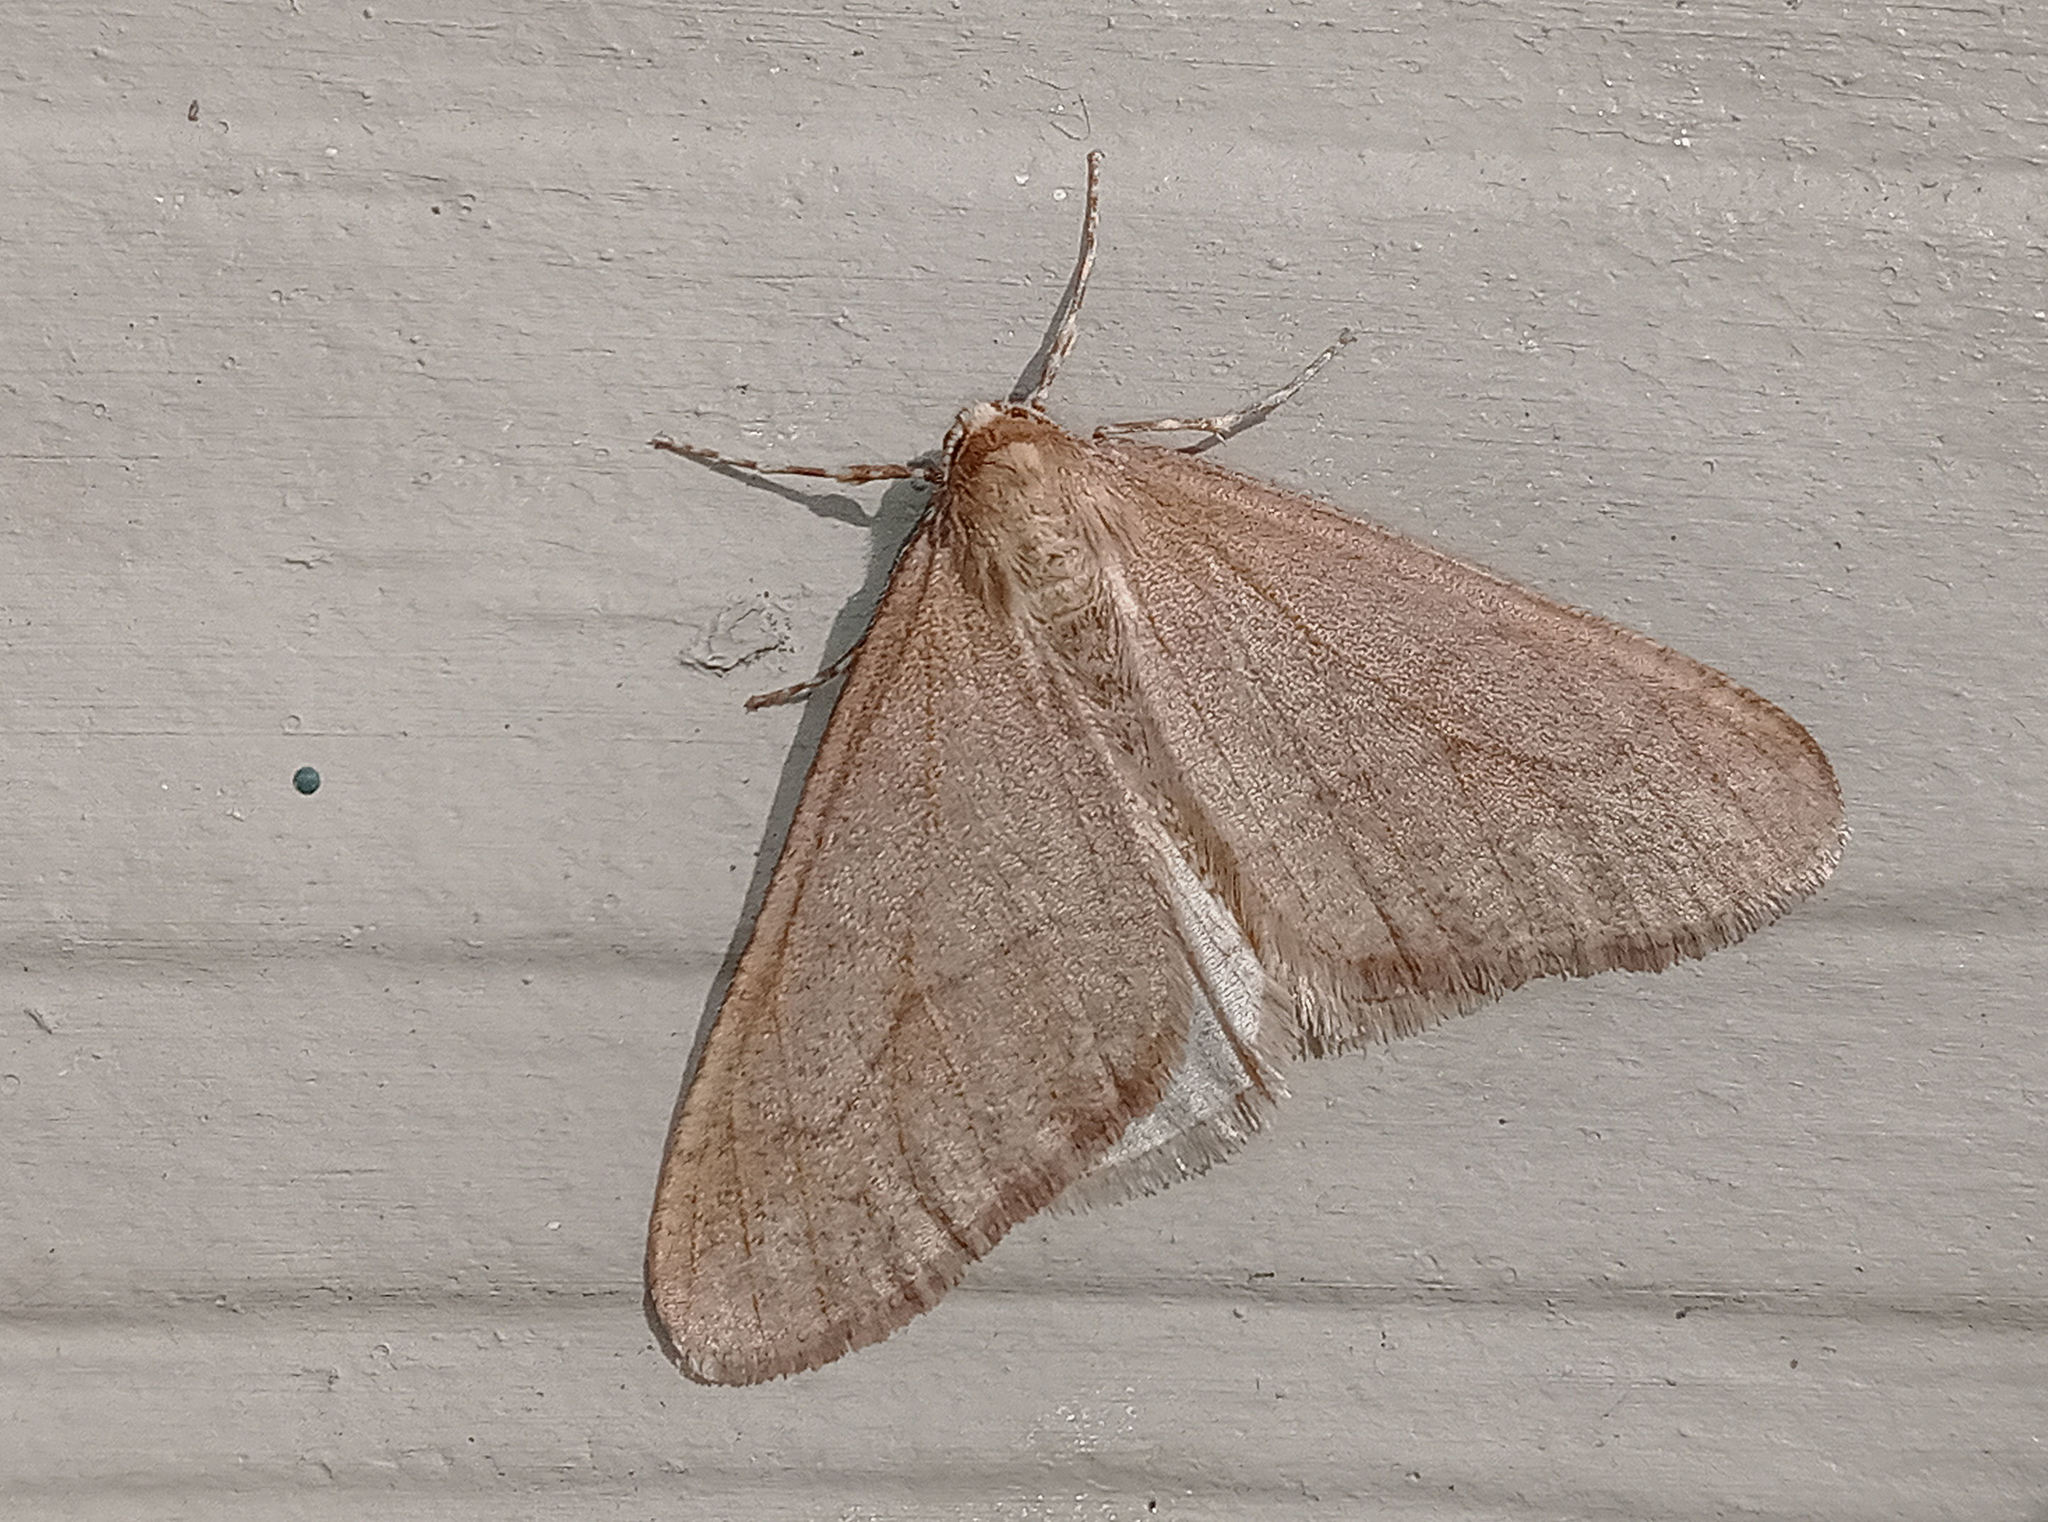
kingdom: Animalia
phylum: Arthropoda
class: Insecta
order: Lepidoptera
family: Geometridae
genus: Erannis
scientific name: Erannis tiliaria
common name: Linden looper
